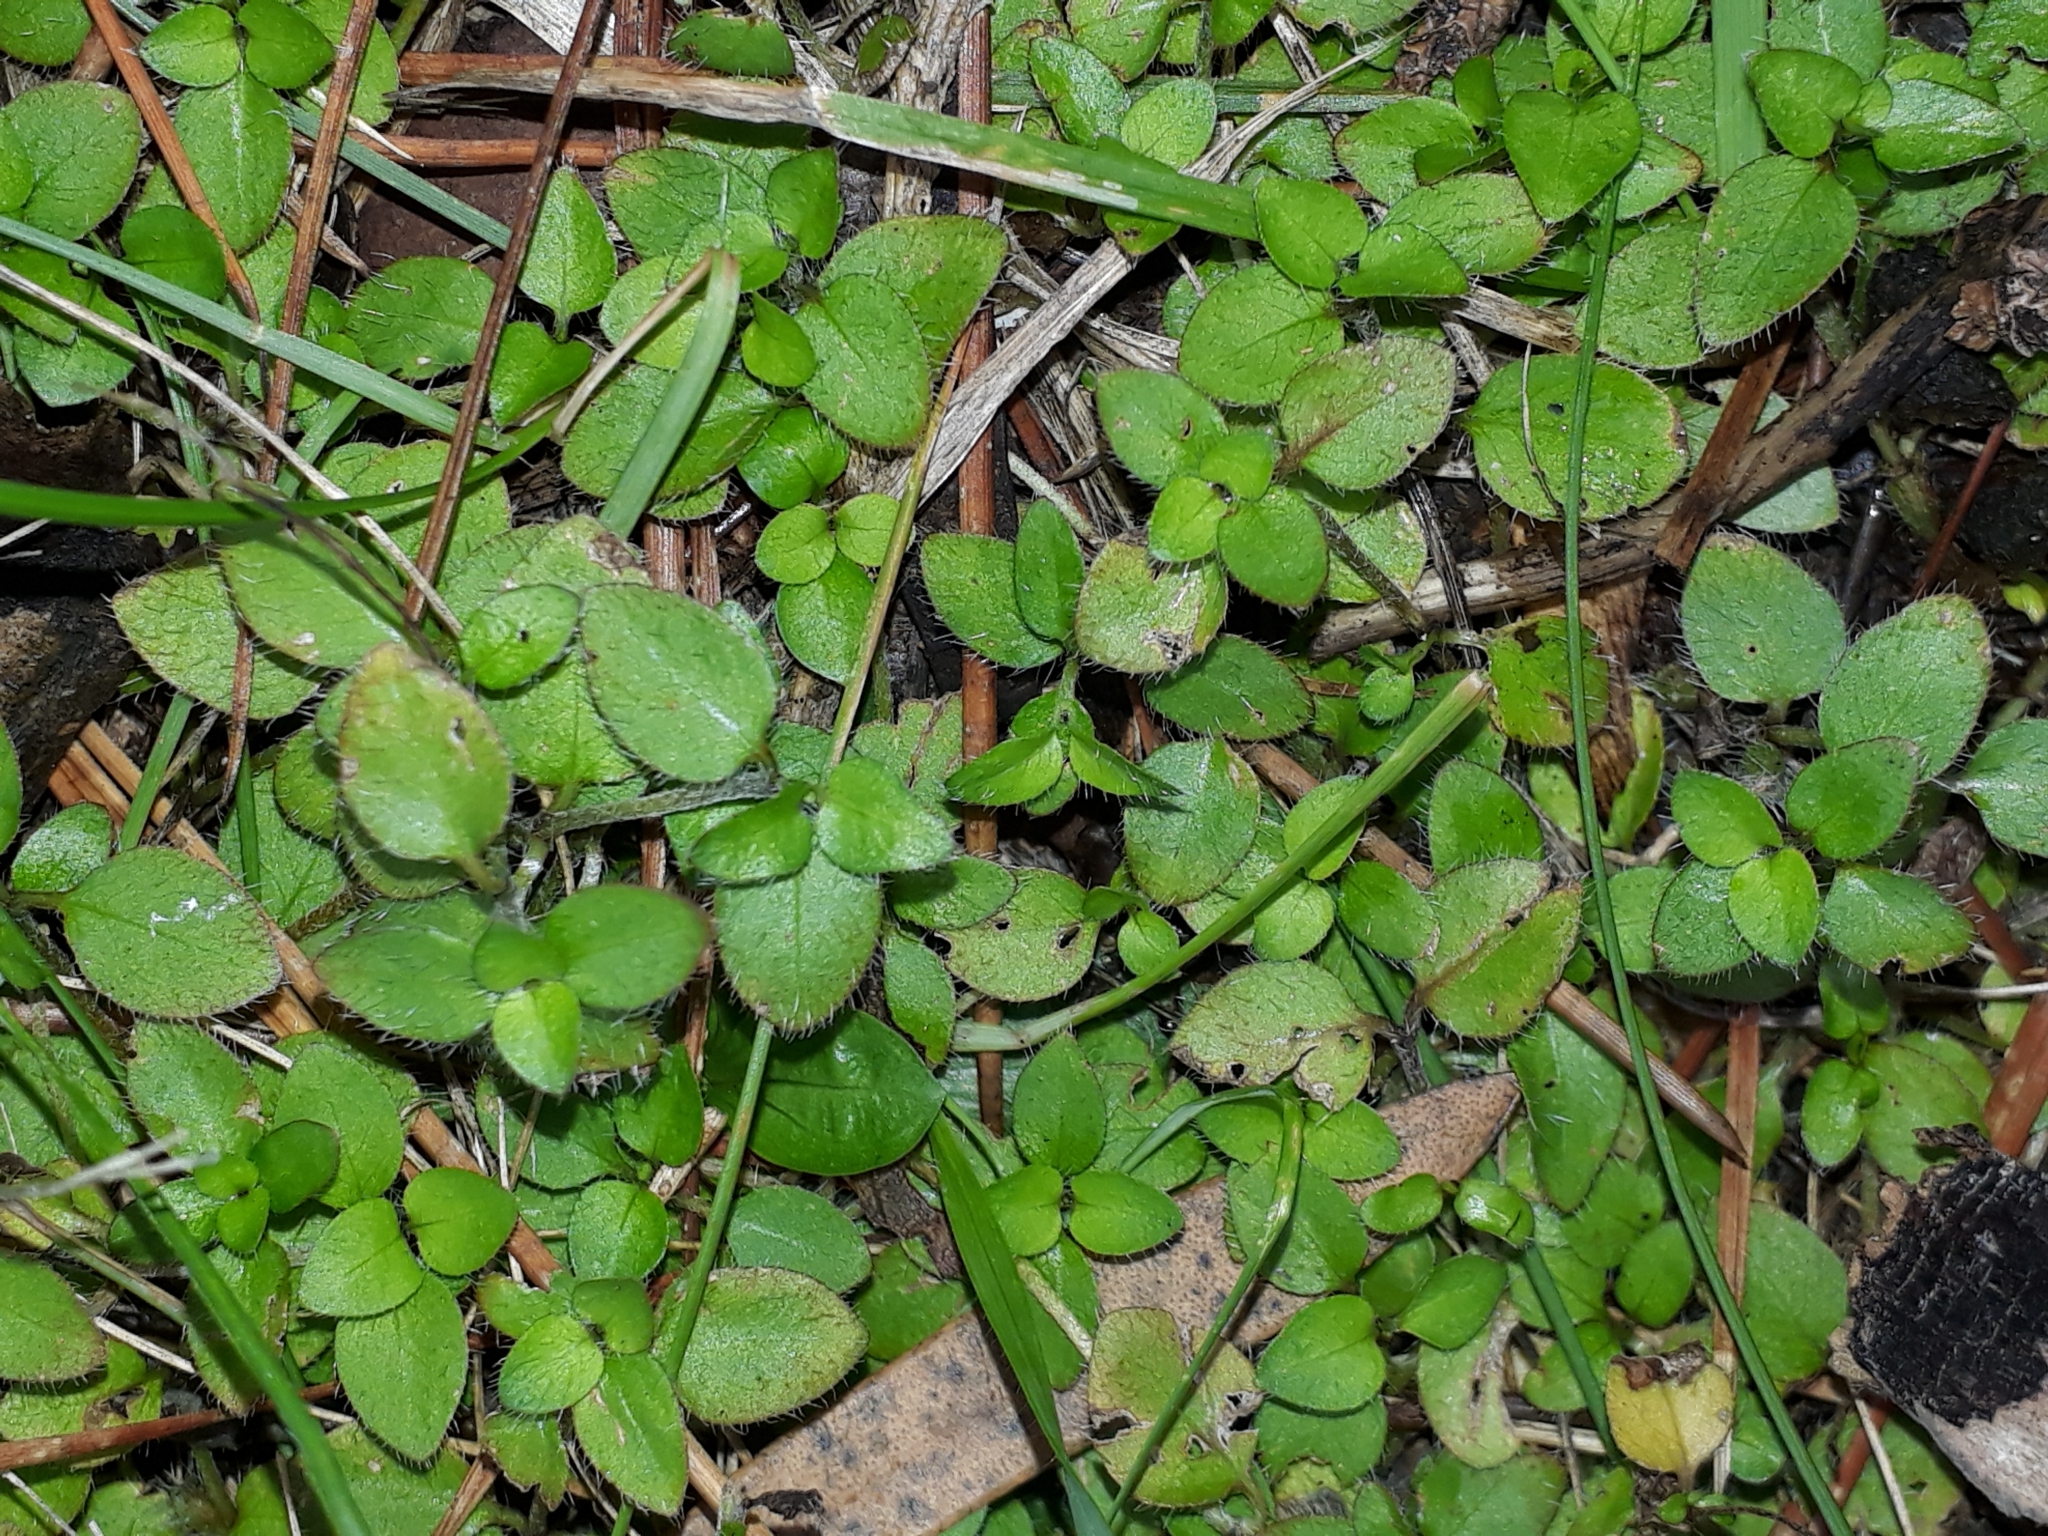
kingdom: Plantae
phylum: Tracheophyta
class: Magnoliopsida
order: Gentianales
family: Rubiaceae
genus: Leptostigma
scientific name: Leptostigma setulosum
